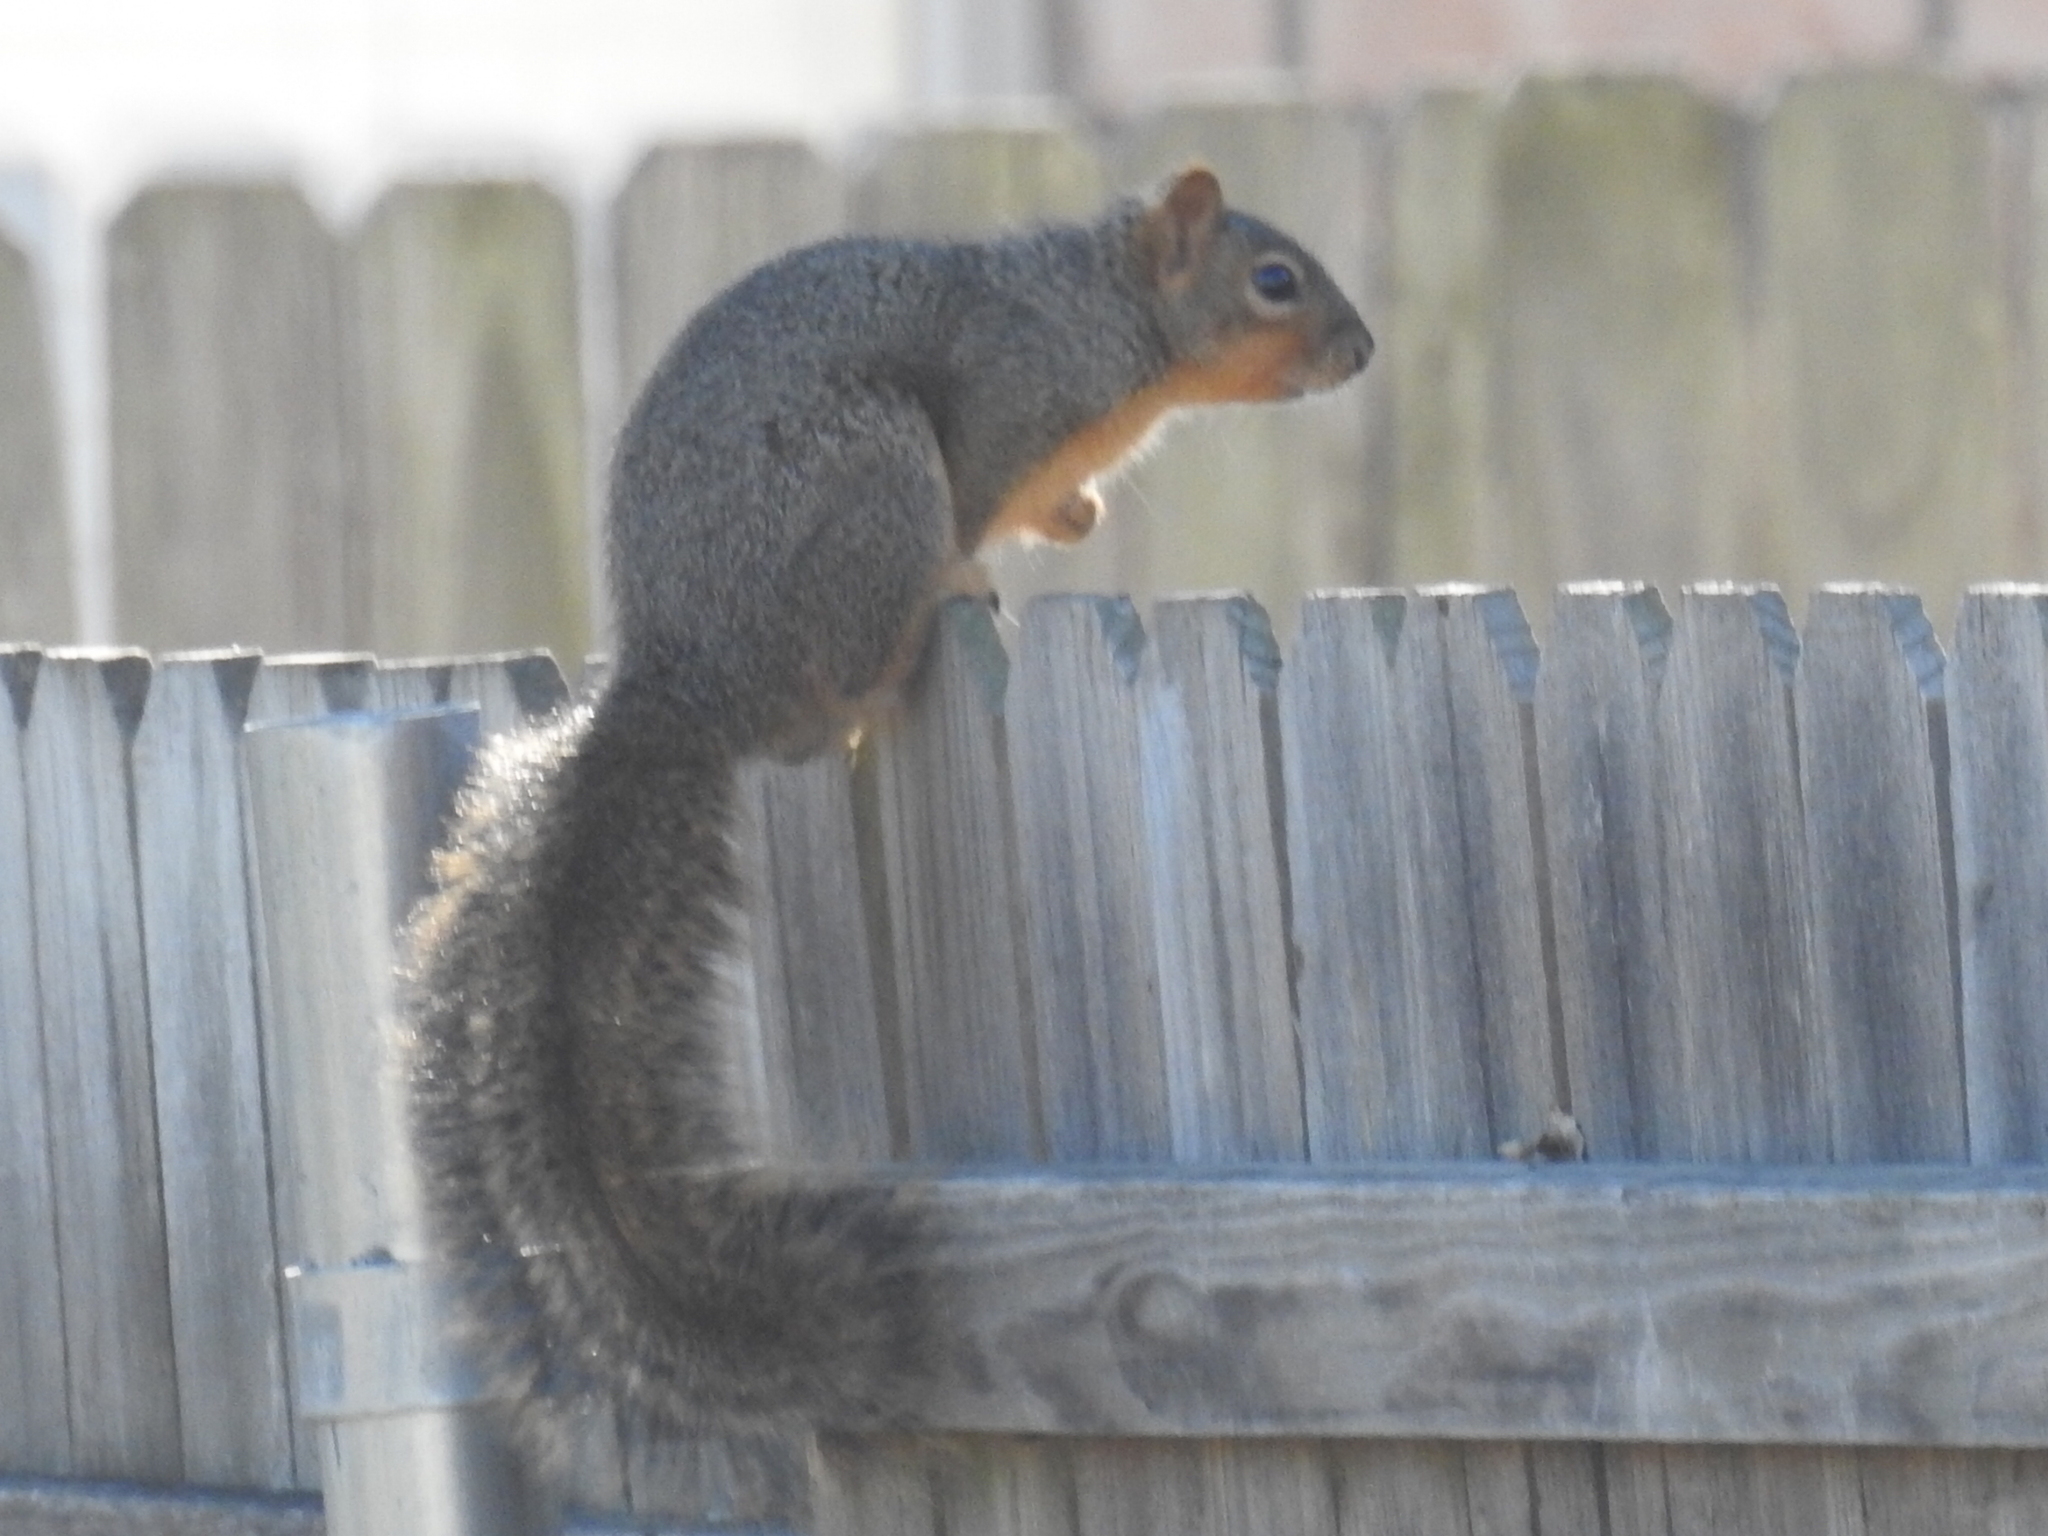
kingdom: Animalia
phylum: Chordata
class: Mammalia
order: Rodentia
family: Sciuridae
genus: Sciurus
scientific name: Sciurus niger
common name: Fox squirrel
